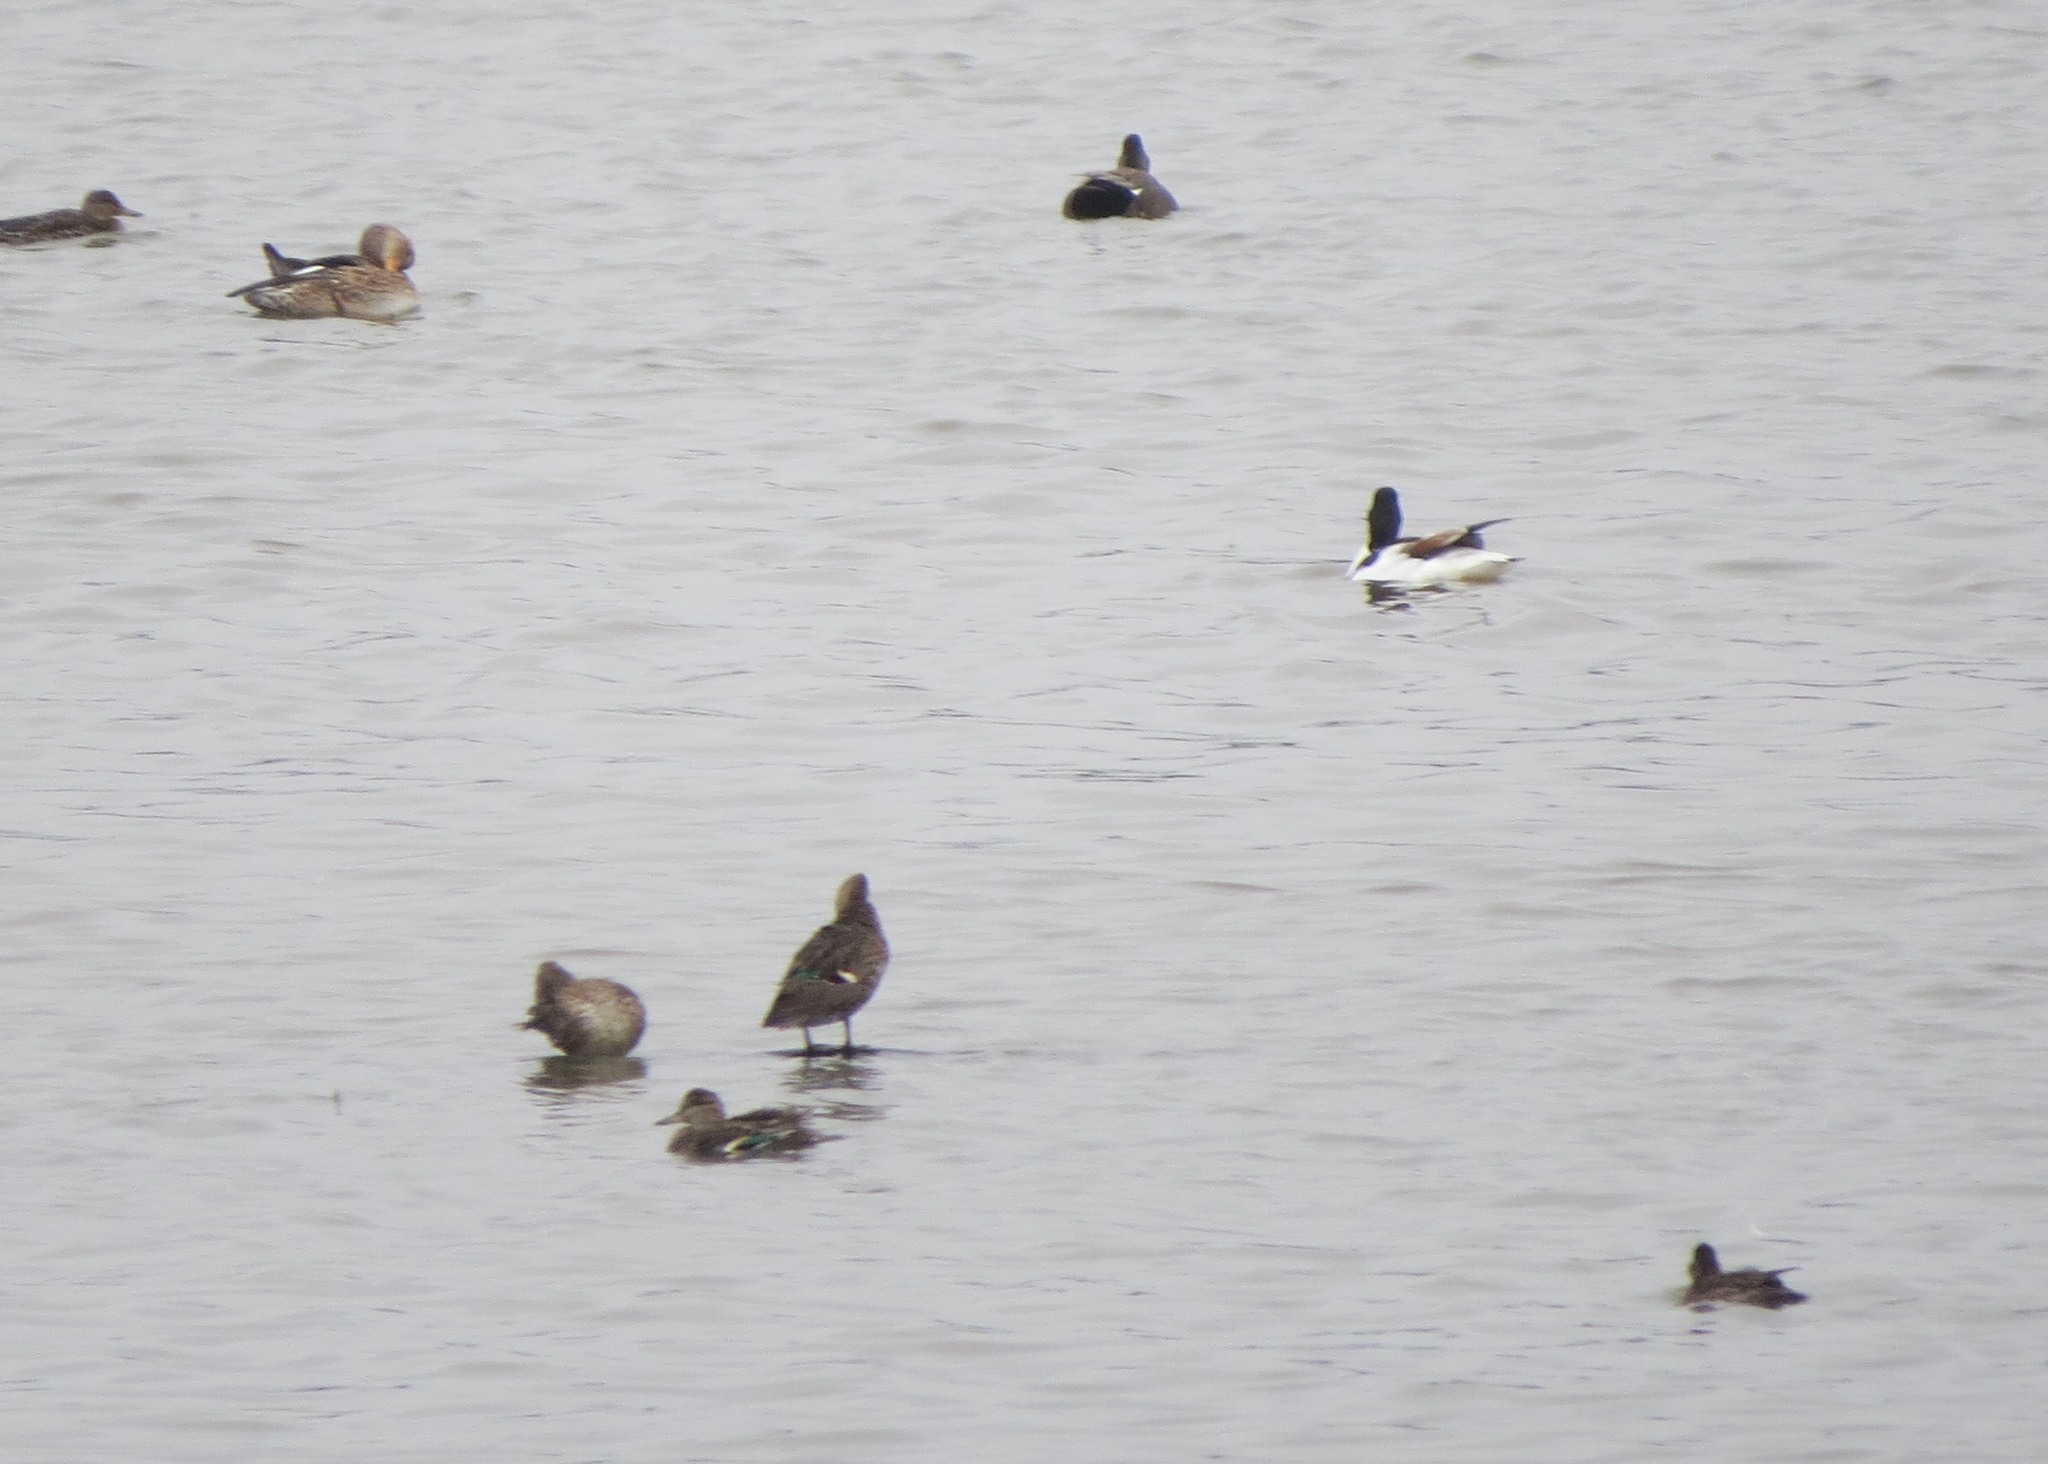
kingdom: Animalia
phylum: Chordata
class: Aves
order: Anseriformes
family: Anatidae
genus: Tadorna
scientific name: Tadorna tadorna
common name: Common shelduck
